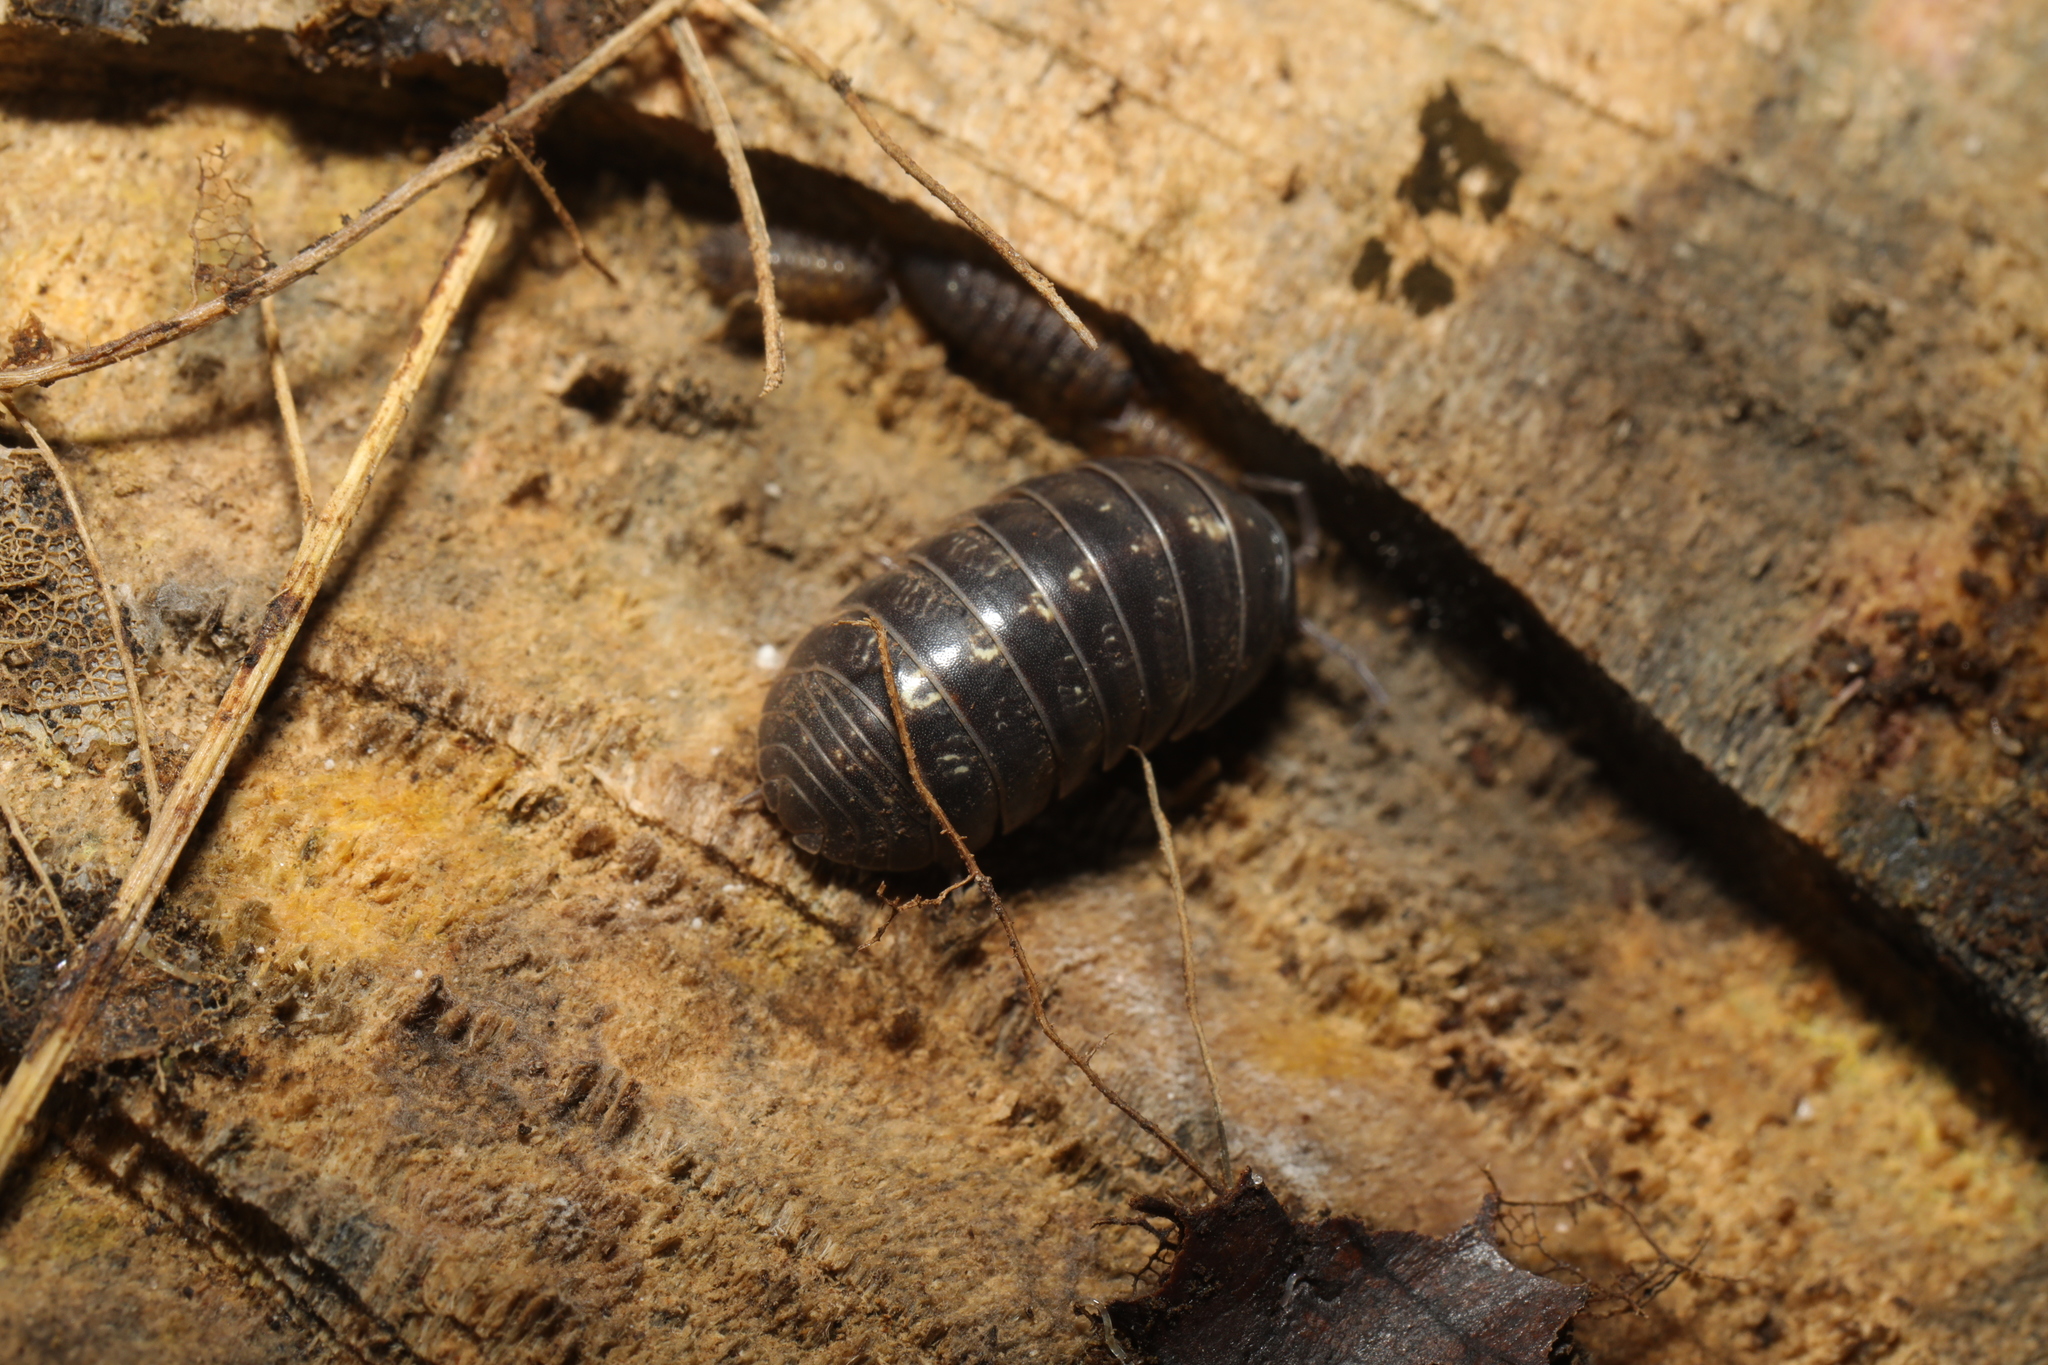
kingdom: Animalia
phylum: Arthropoda
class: Malacostraca
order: Isopoda
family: Armadillidiidae
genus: Armadillidium
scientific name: Armadillidium vulgare
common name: Common pill woodlouse
